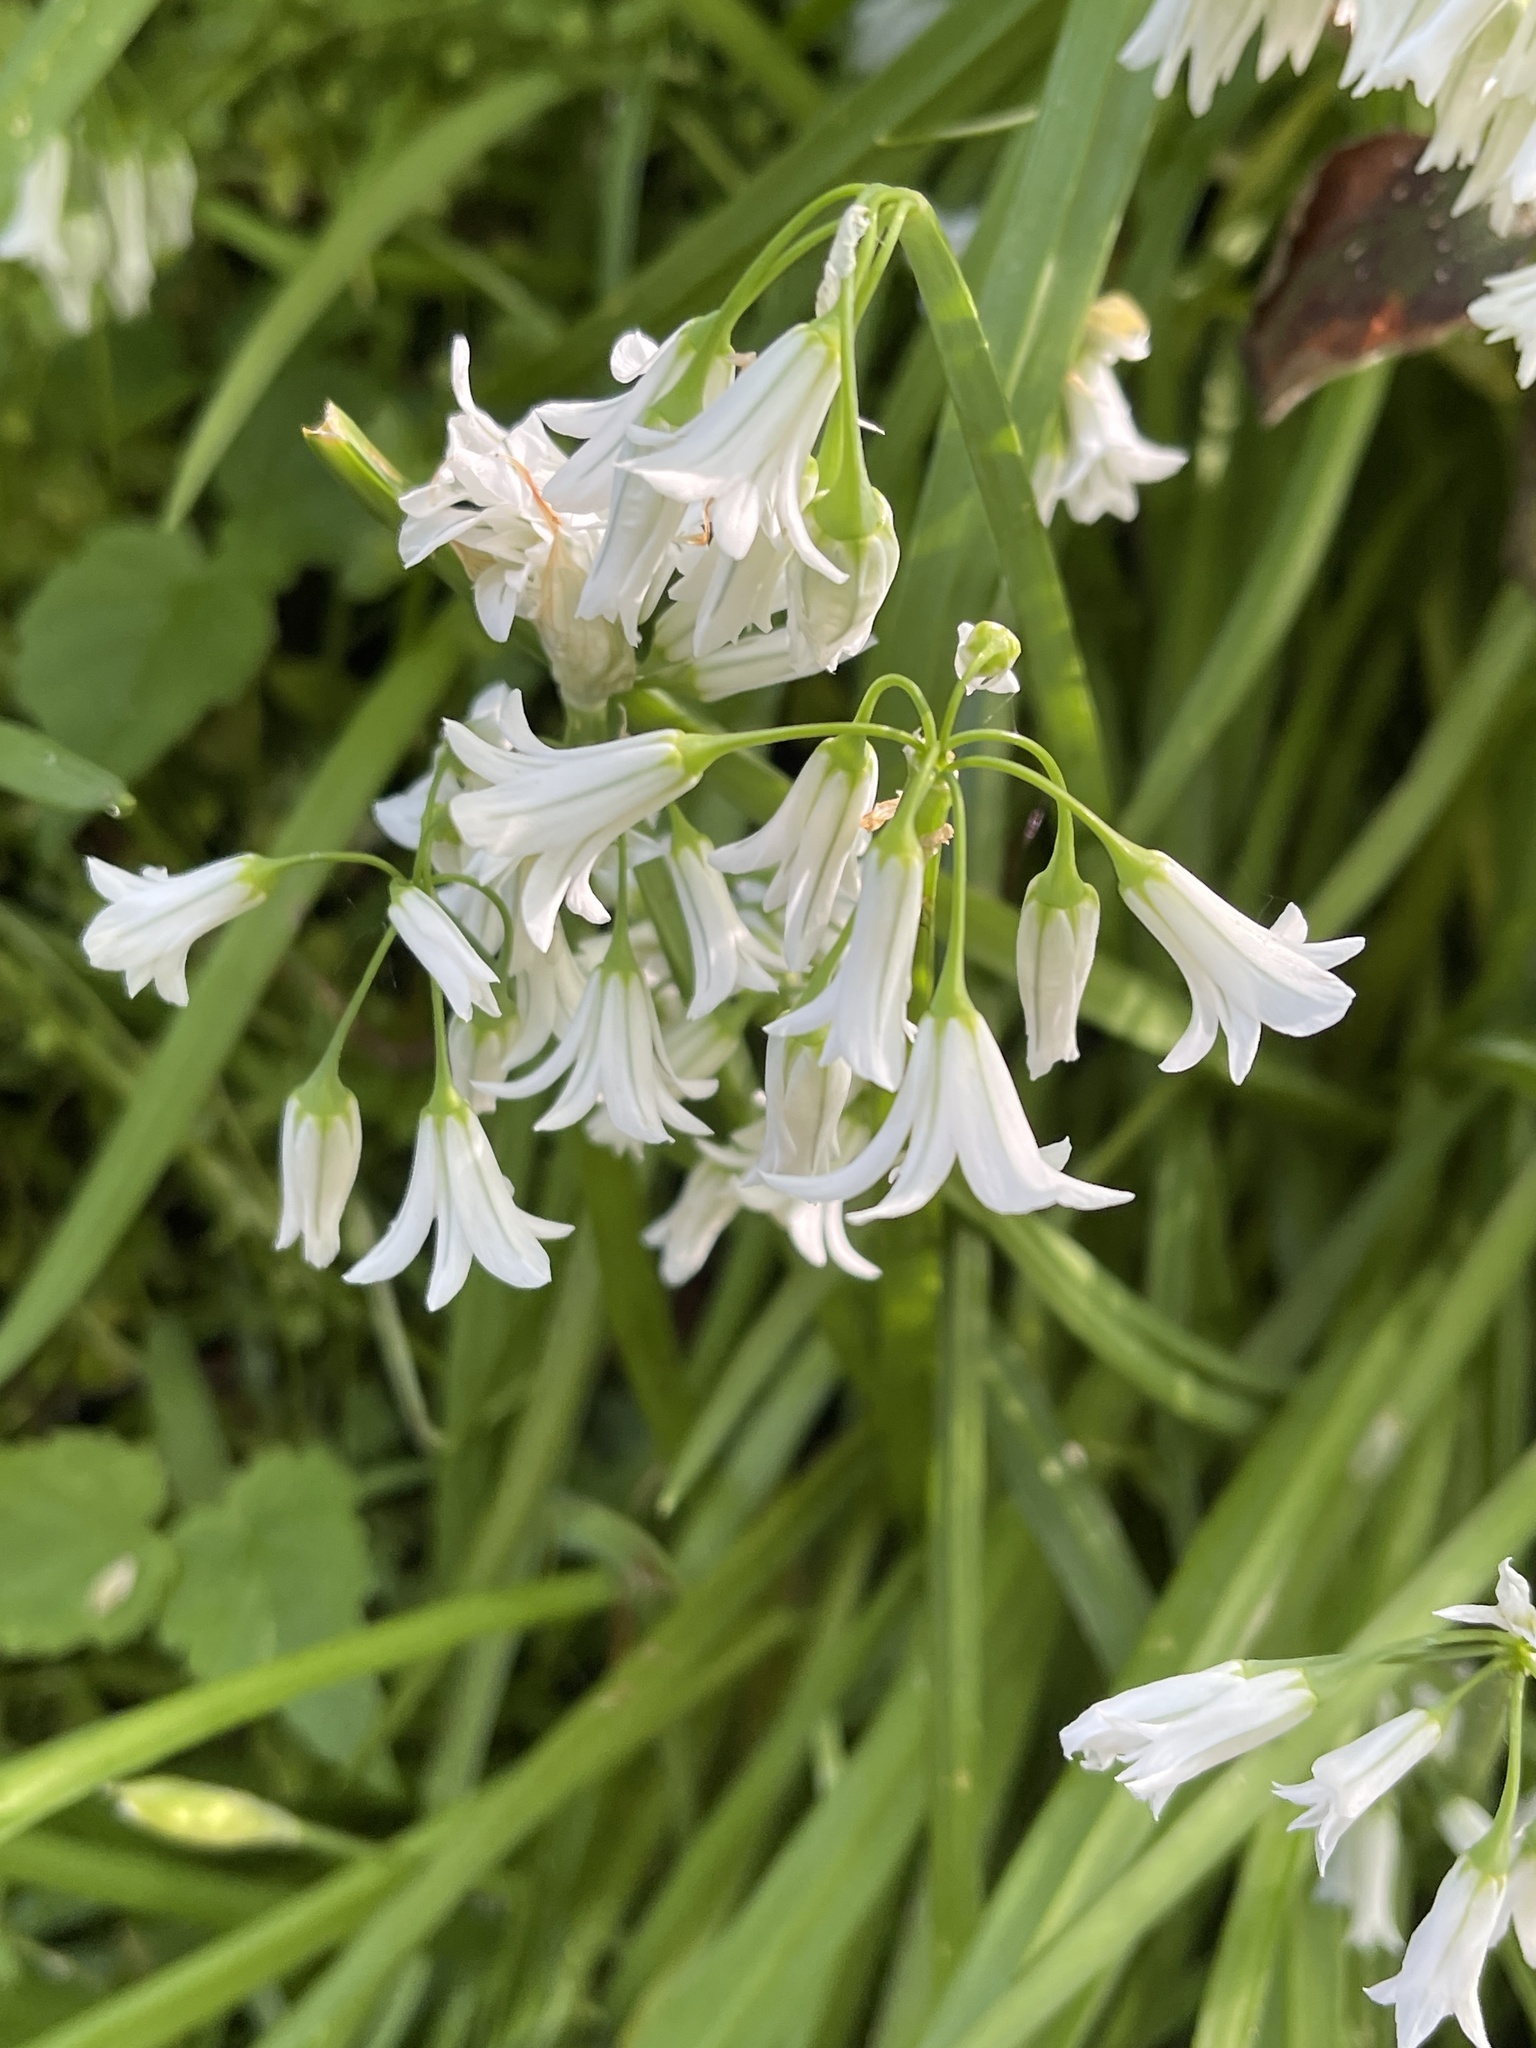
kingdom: Plantae
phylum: Tracheophyta
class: Liliopsida
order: Asparagales
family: Amaryllidaceae
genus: Allium
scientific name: Allium triquetrum
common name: Three-cornered garlic
